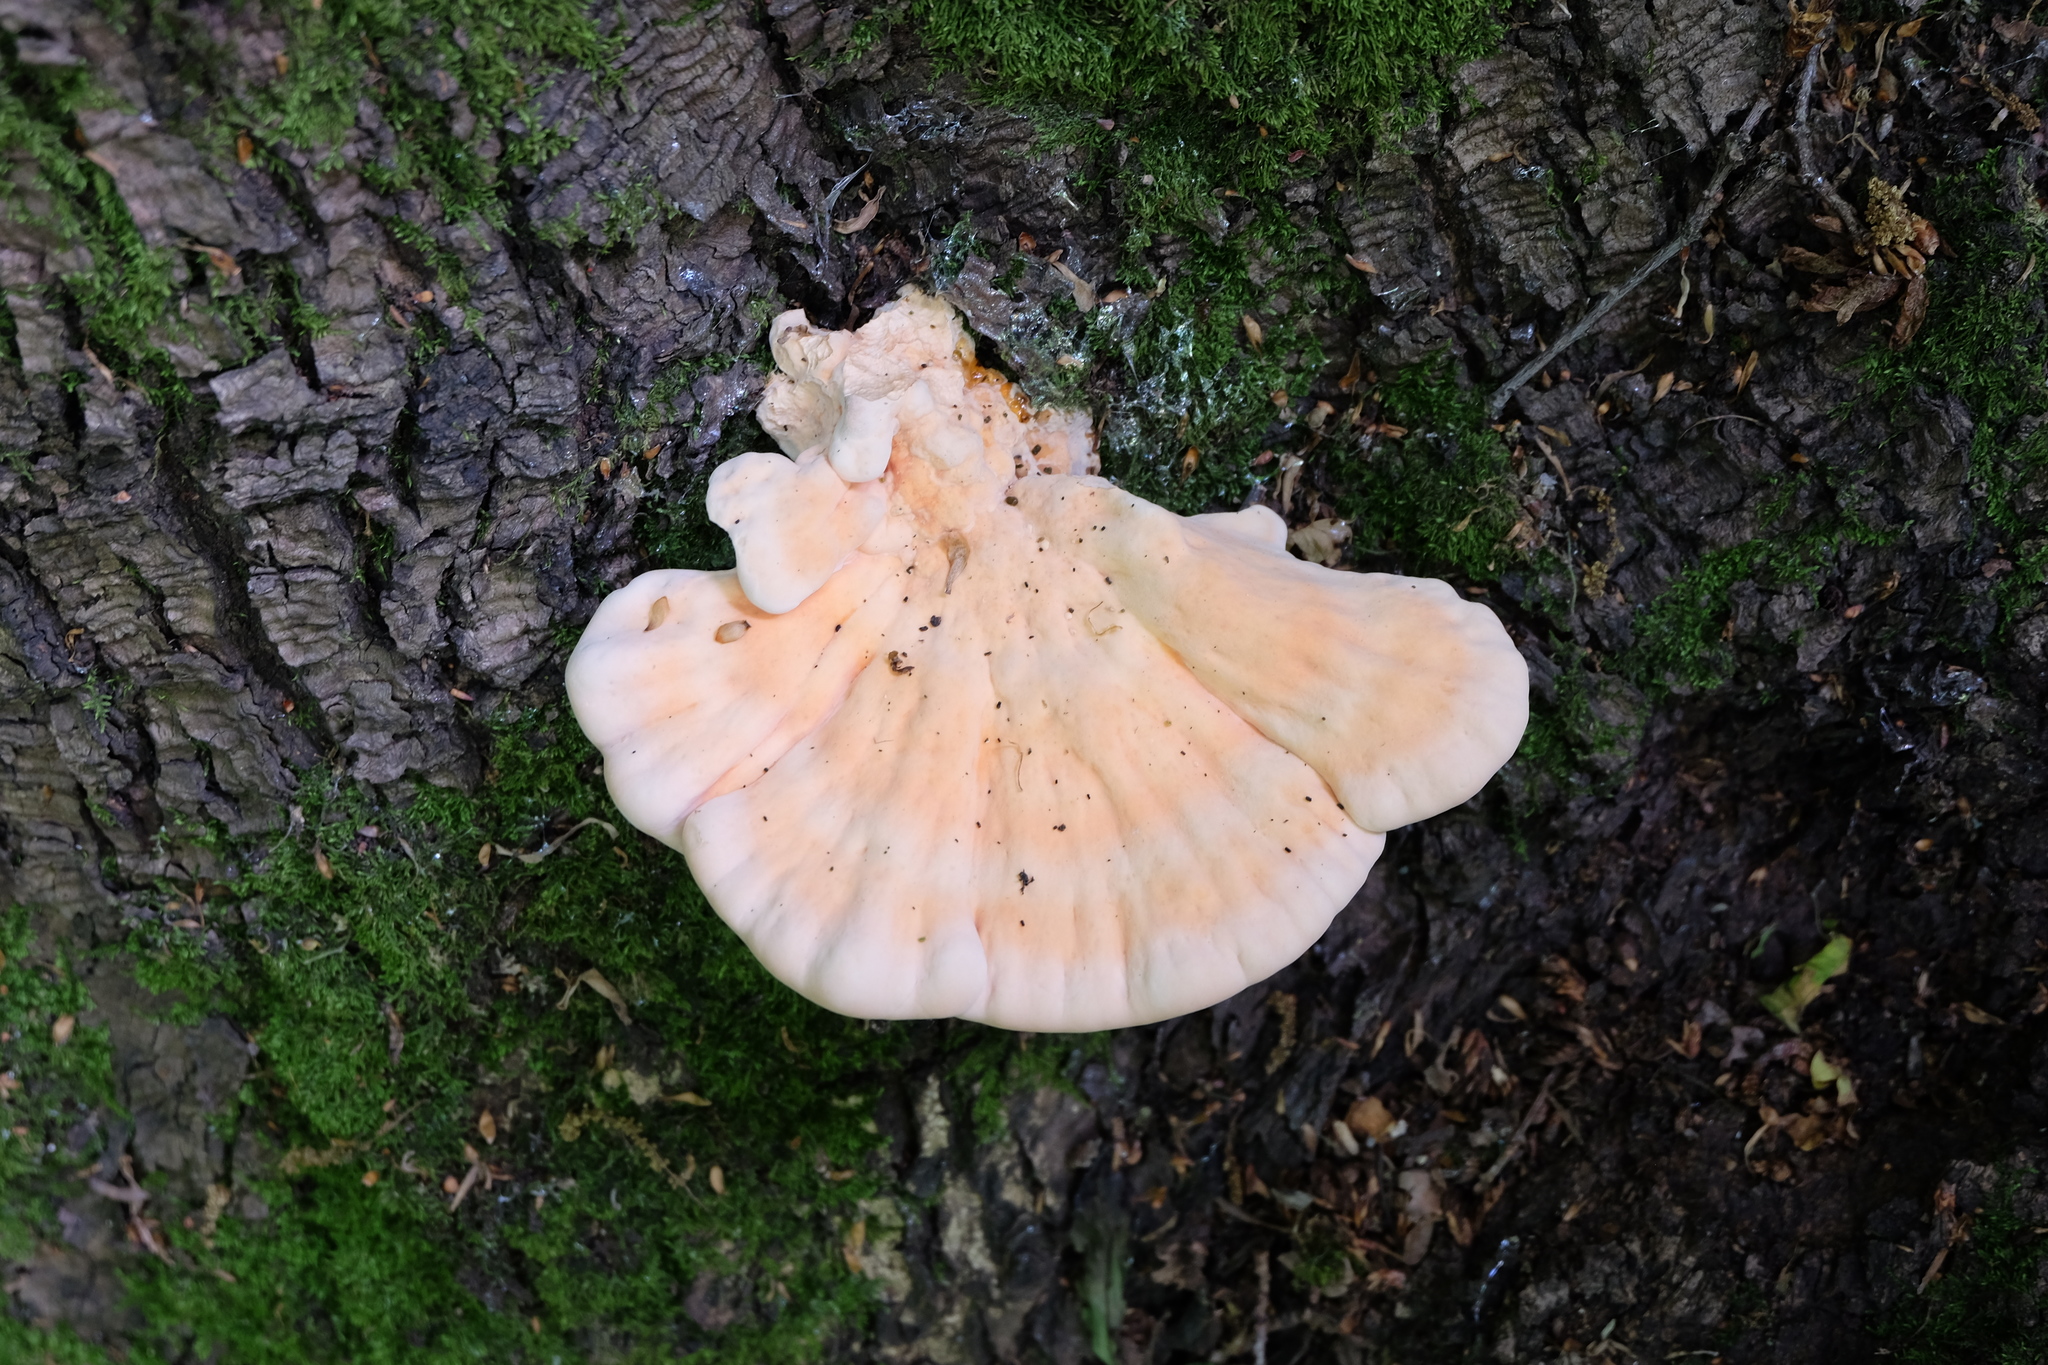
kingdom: Fungi
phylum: Basidiomycota
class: Agaricomycetes
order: Polyporales
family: Laetiporaceae
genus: Laetiporus
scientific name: Laetiporus sulphureus
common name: Chicken of the woods
